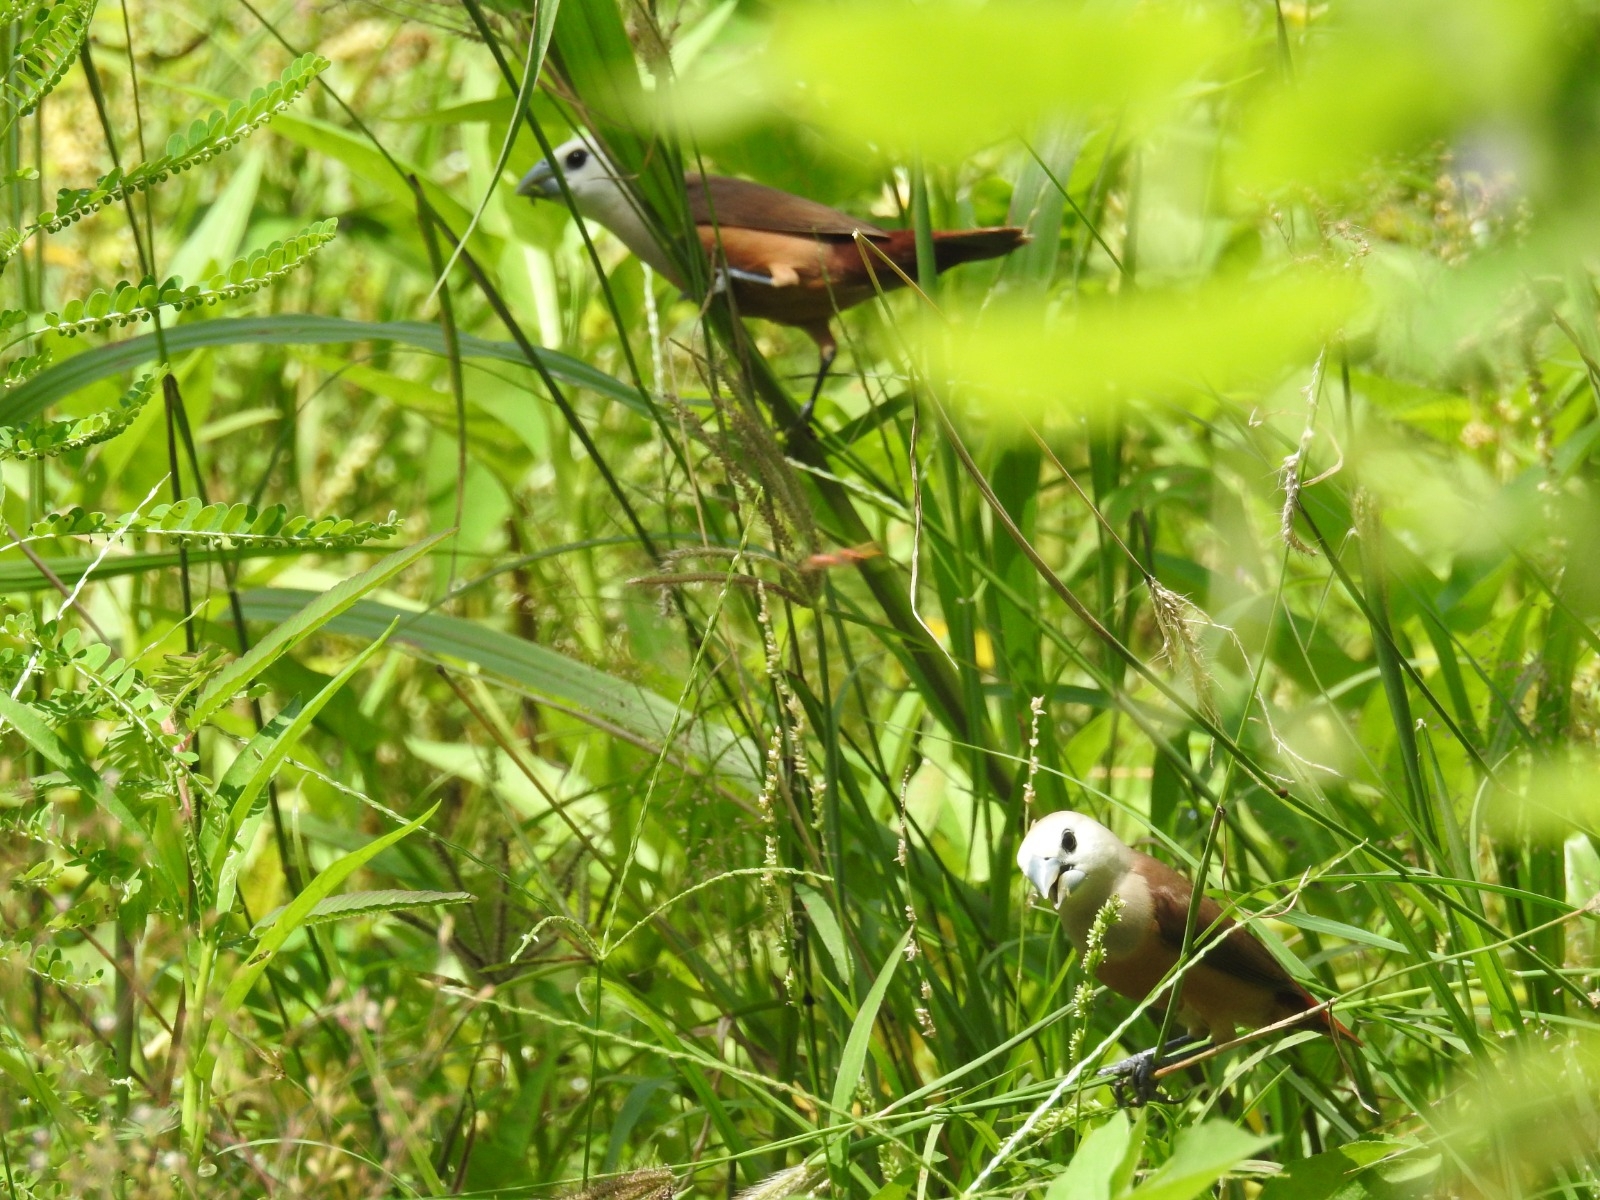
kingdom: Animalia
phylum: Chordata
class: Aves
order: Passeriformes
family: Estrildidae
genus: Lonchura
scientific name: Lonchura pallida
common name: Pale-headed munia
